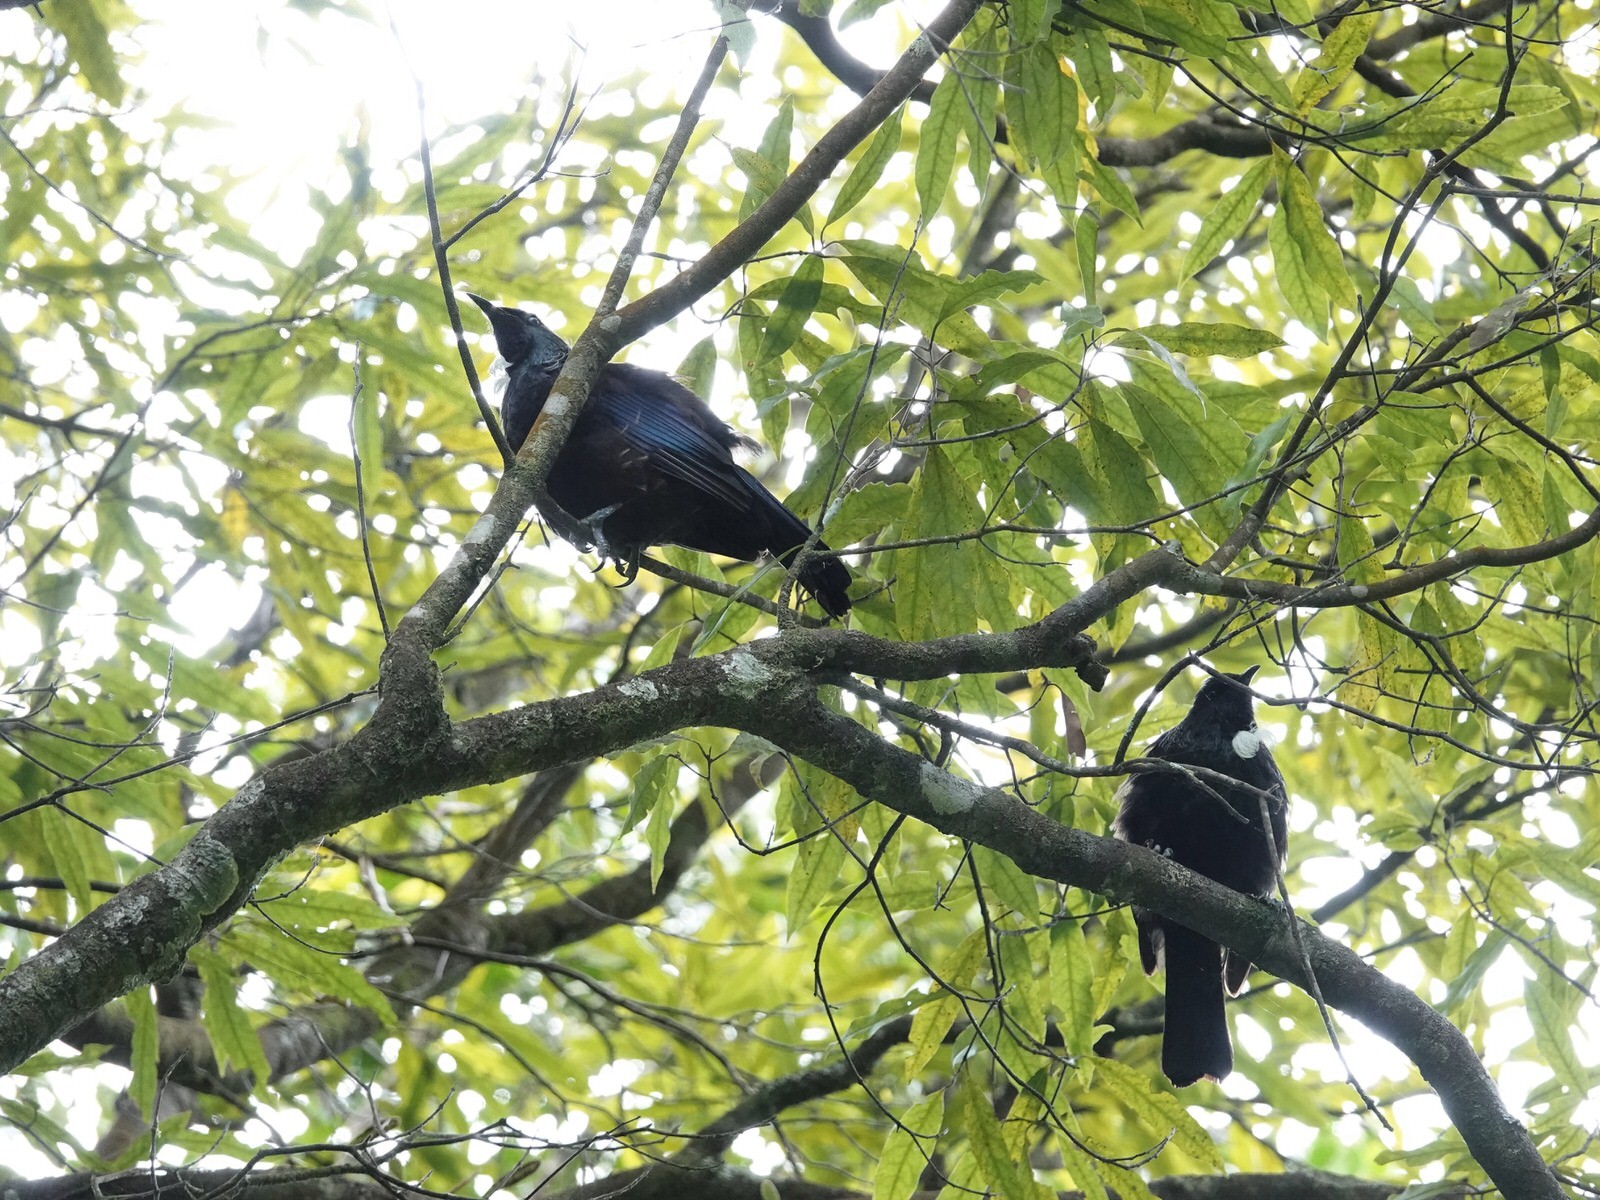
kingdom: Animalia
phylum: Chordata
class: Aves
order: Passeriformes
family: Meliphagidae
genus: Prosthemadera
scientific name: Prosthemadera novaeseelandiae
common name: Tui
